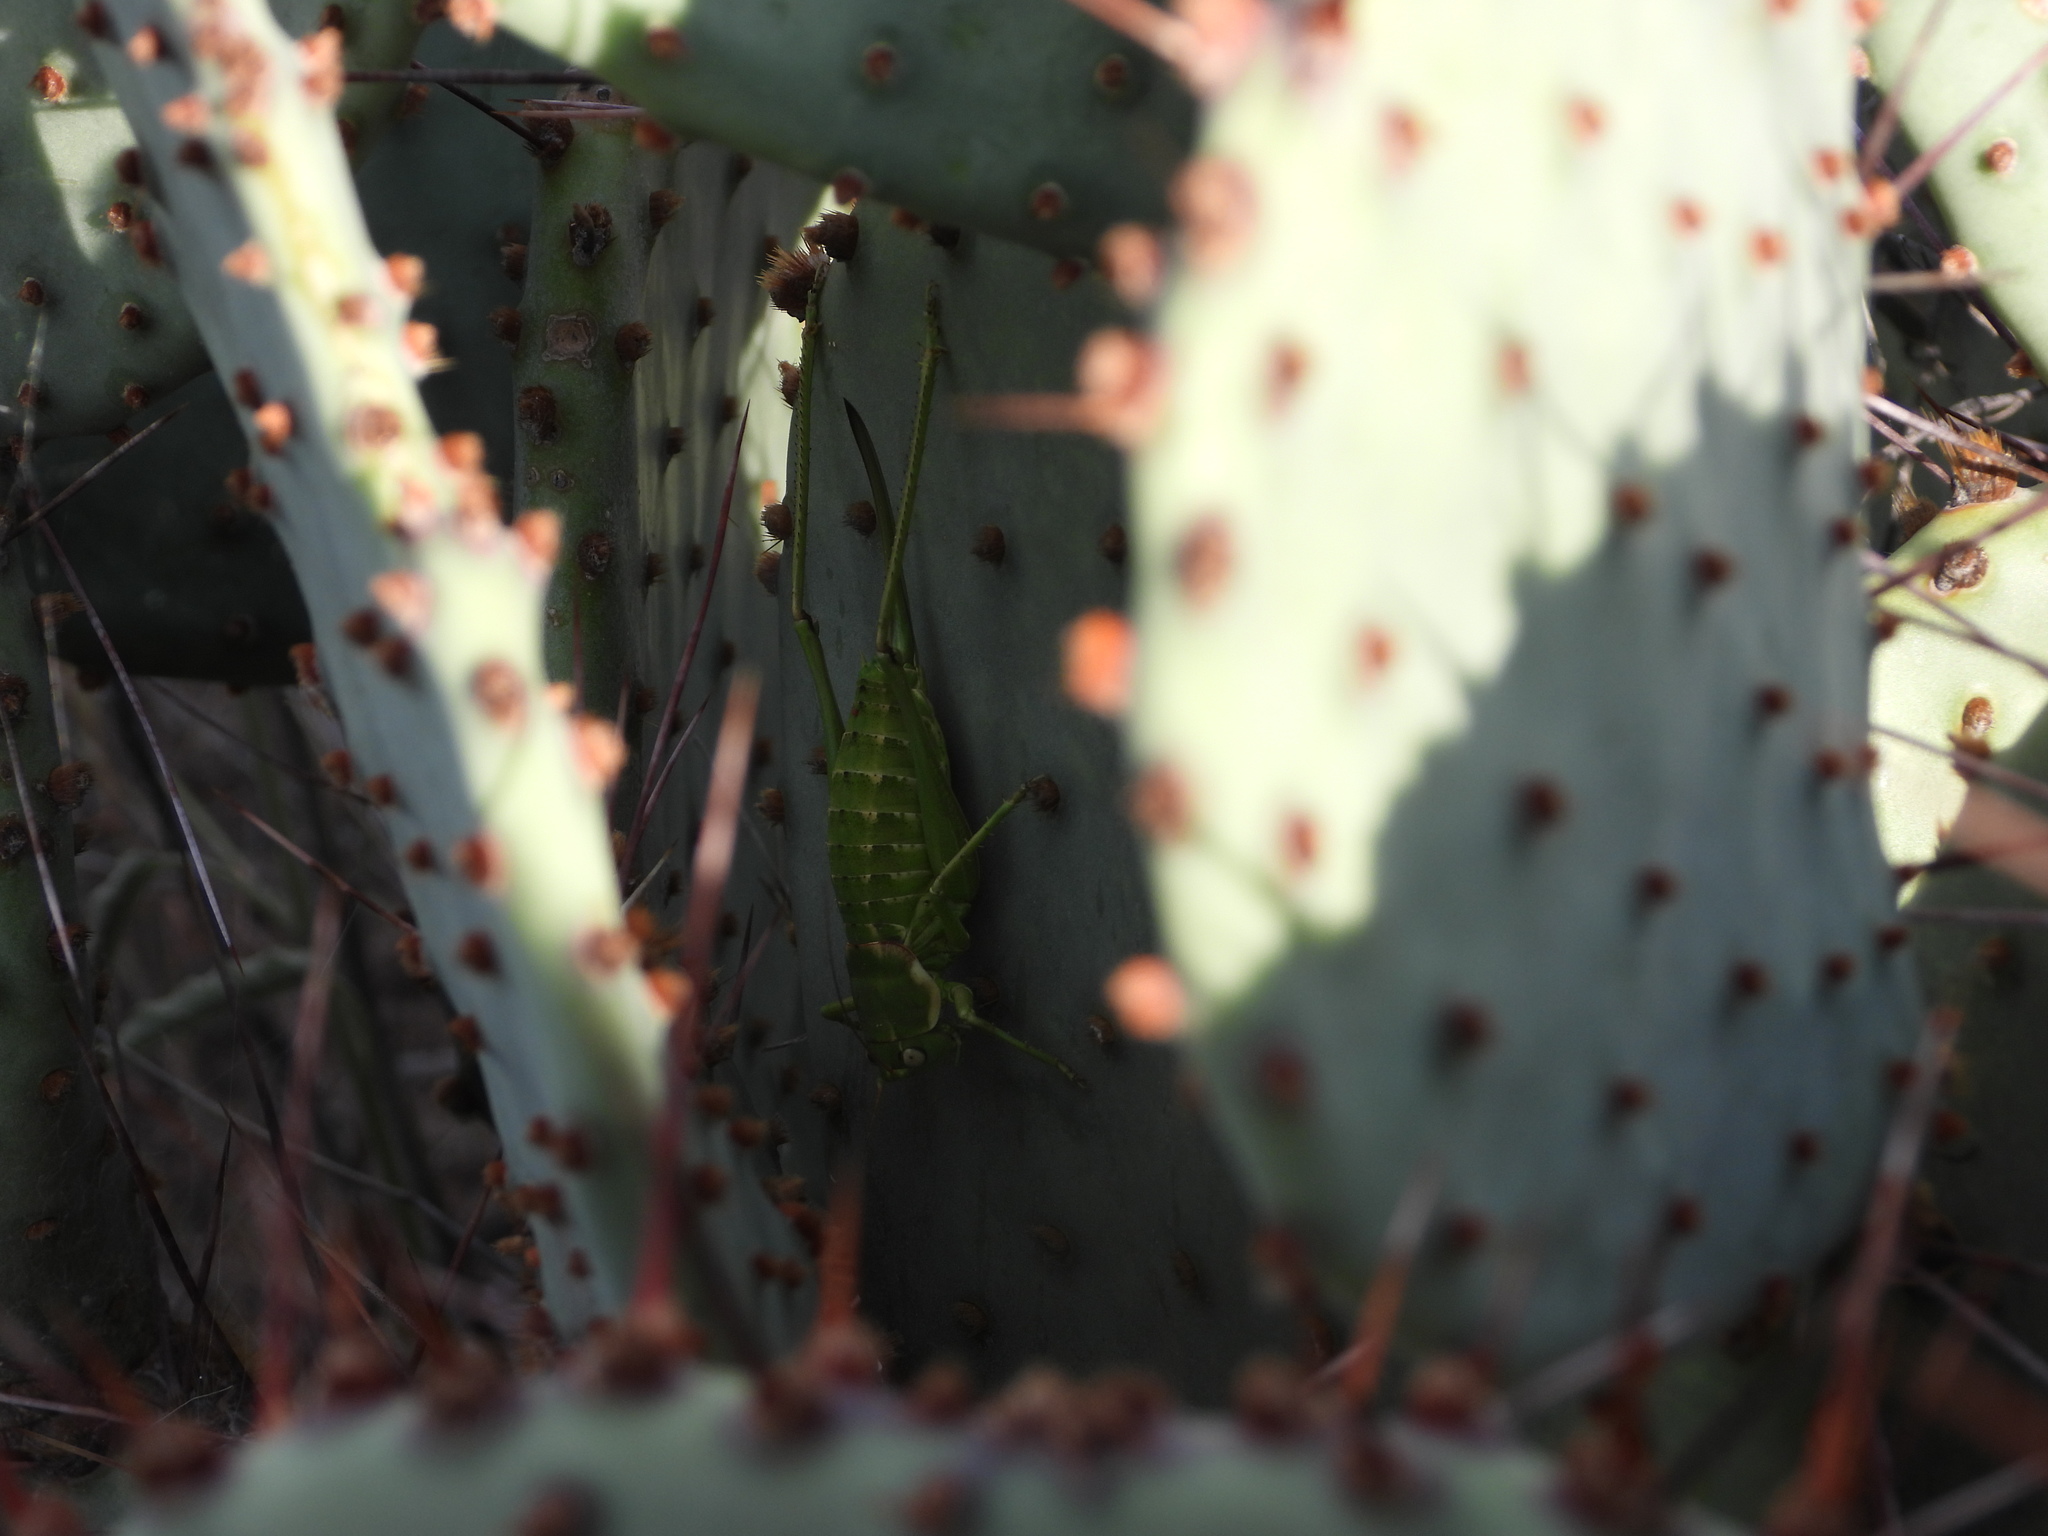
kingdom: Animalia
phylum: Arthropoda
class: Insecta
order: Orthoptera
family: Tettigoniidae
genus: Eremopedes
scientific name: Eremopedes covilleae
